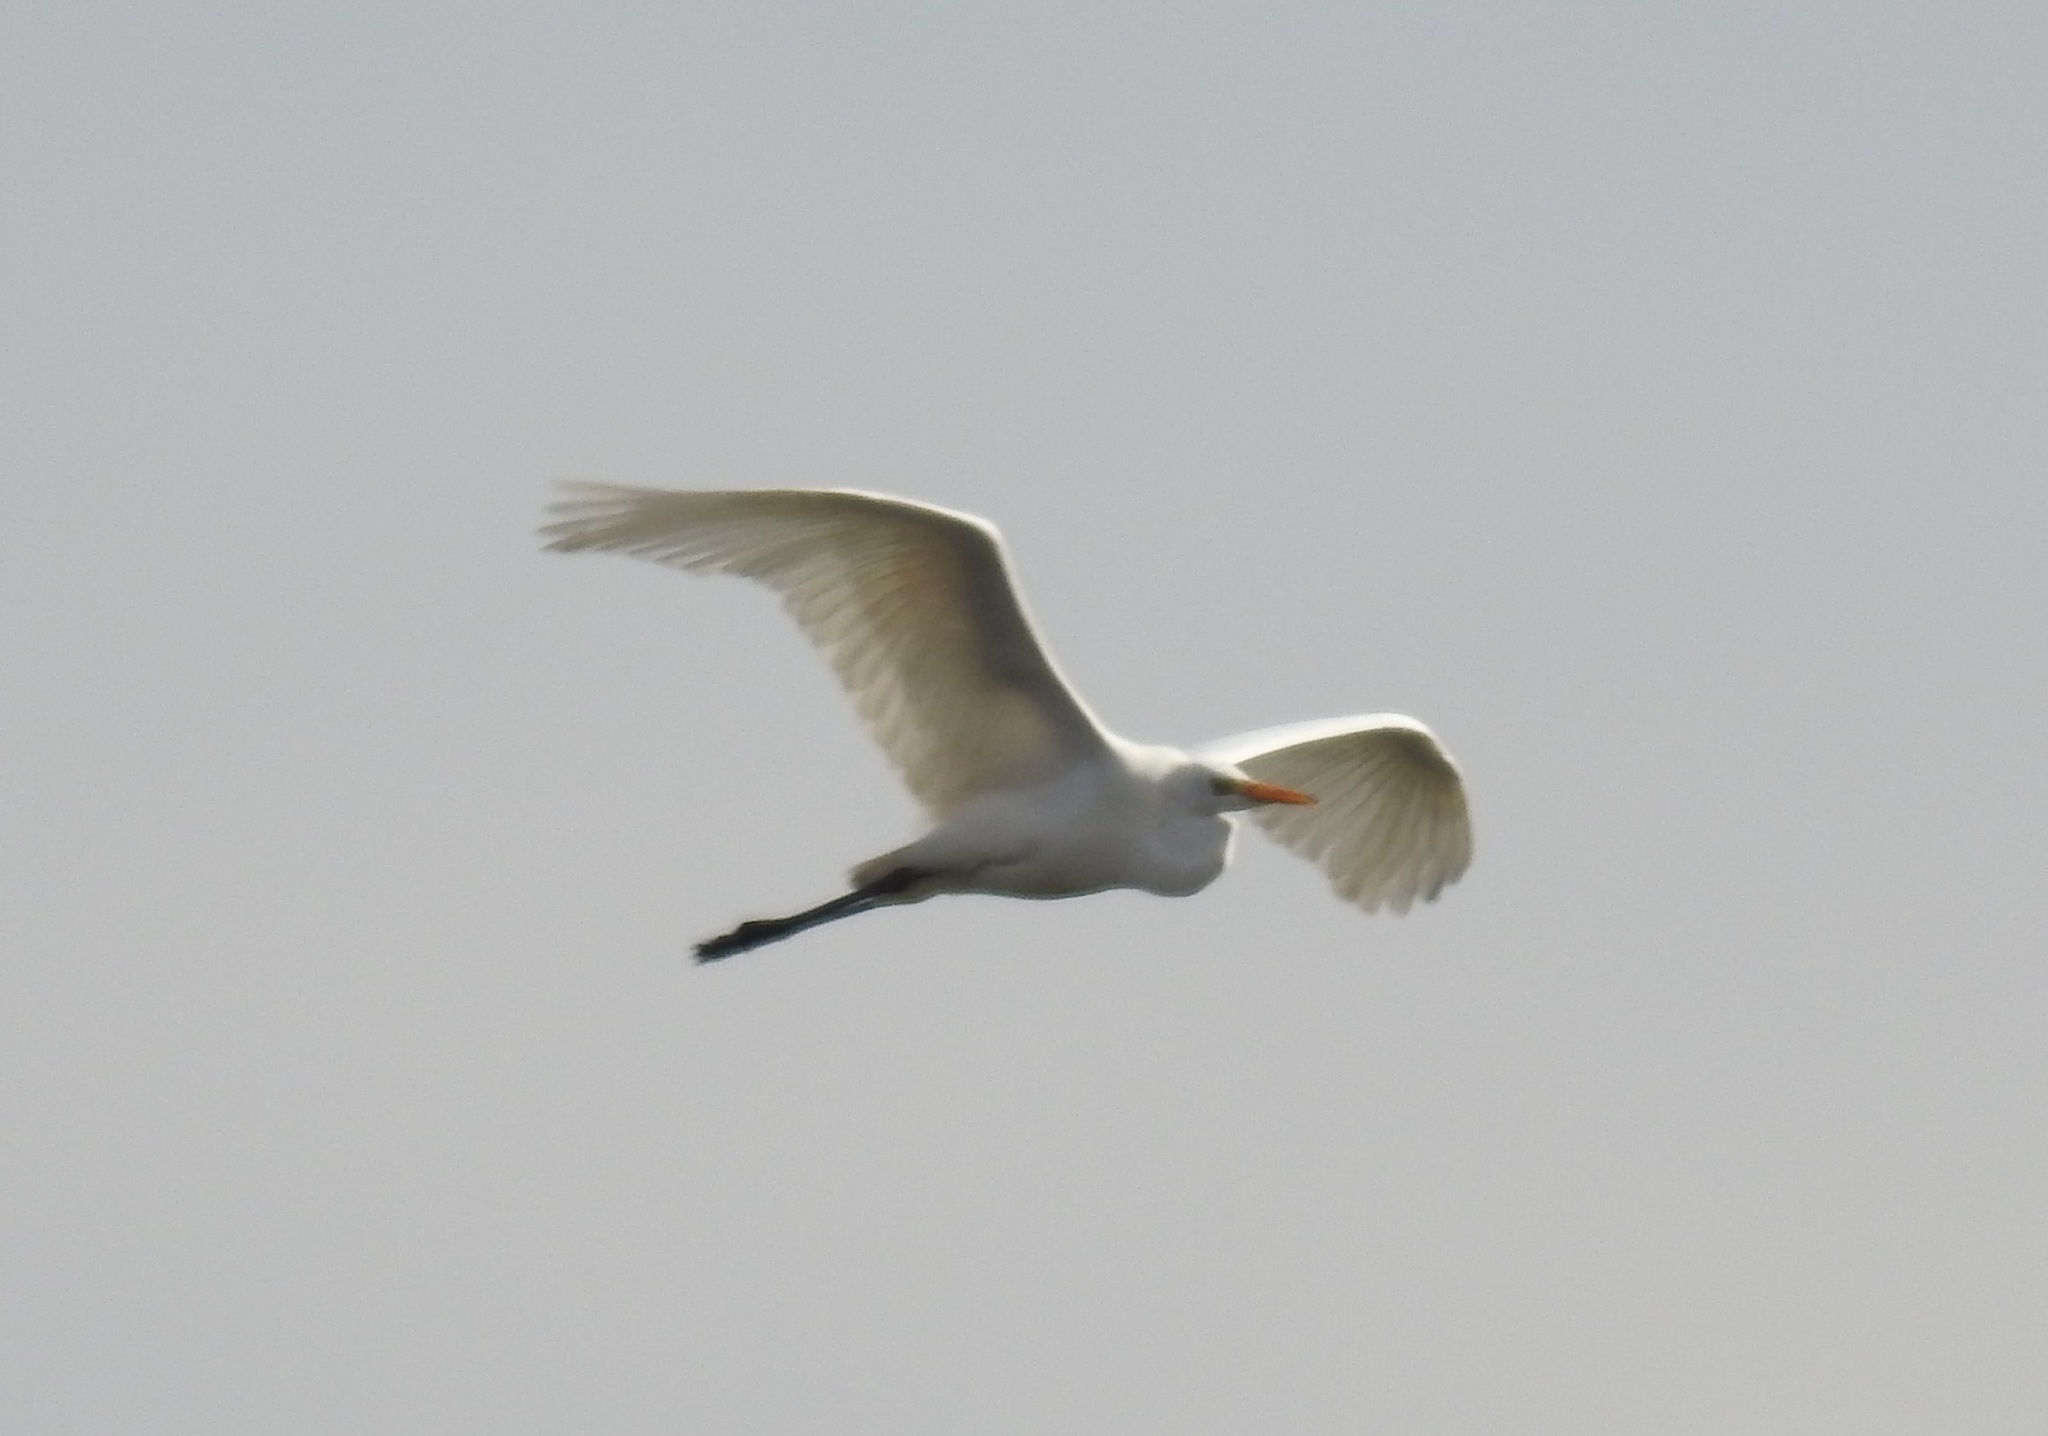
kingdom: Animalia
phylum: Chordata
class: Aves
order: Pelecaniformes
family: Ardeidae
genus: Ardea
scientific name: Ardea alba
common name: Great egret
